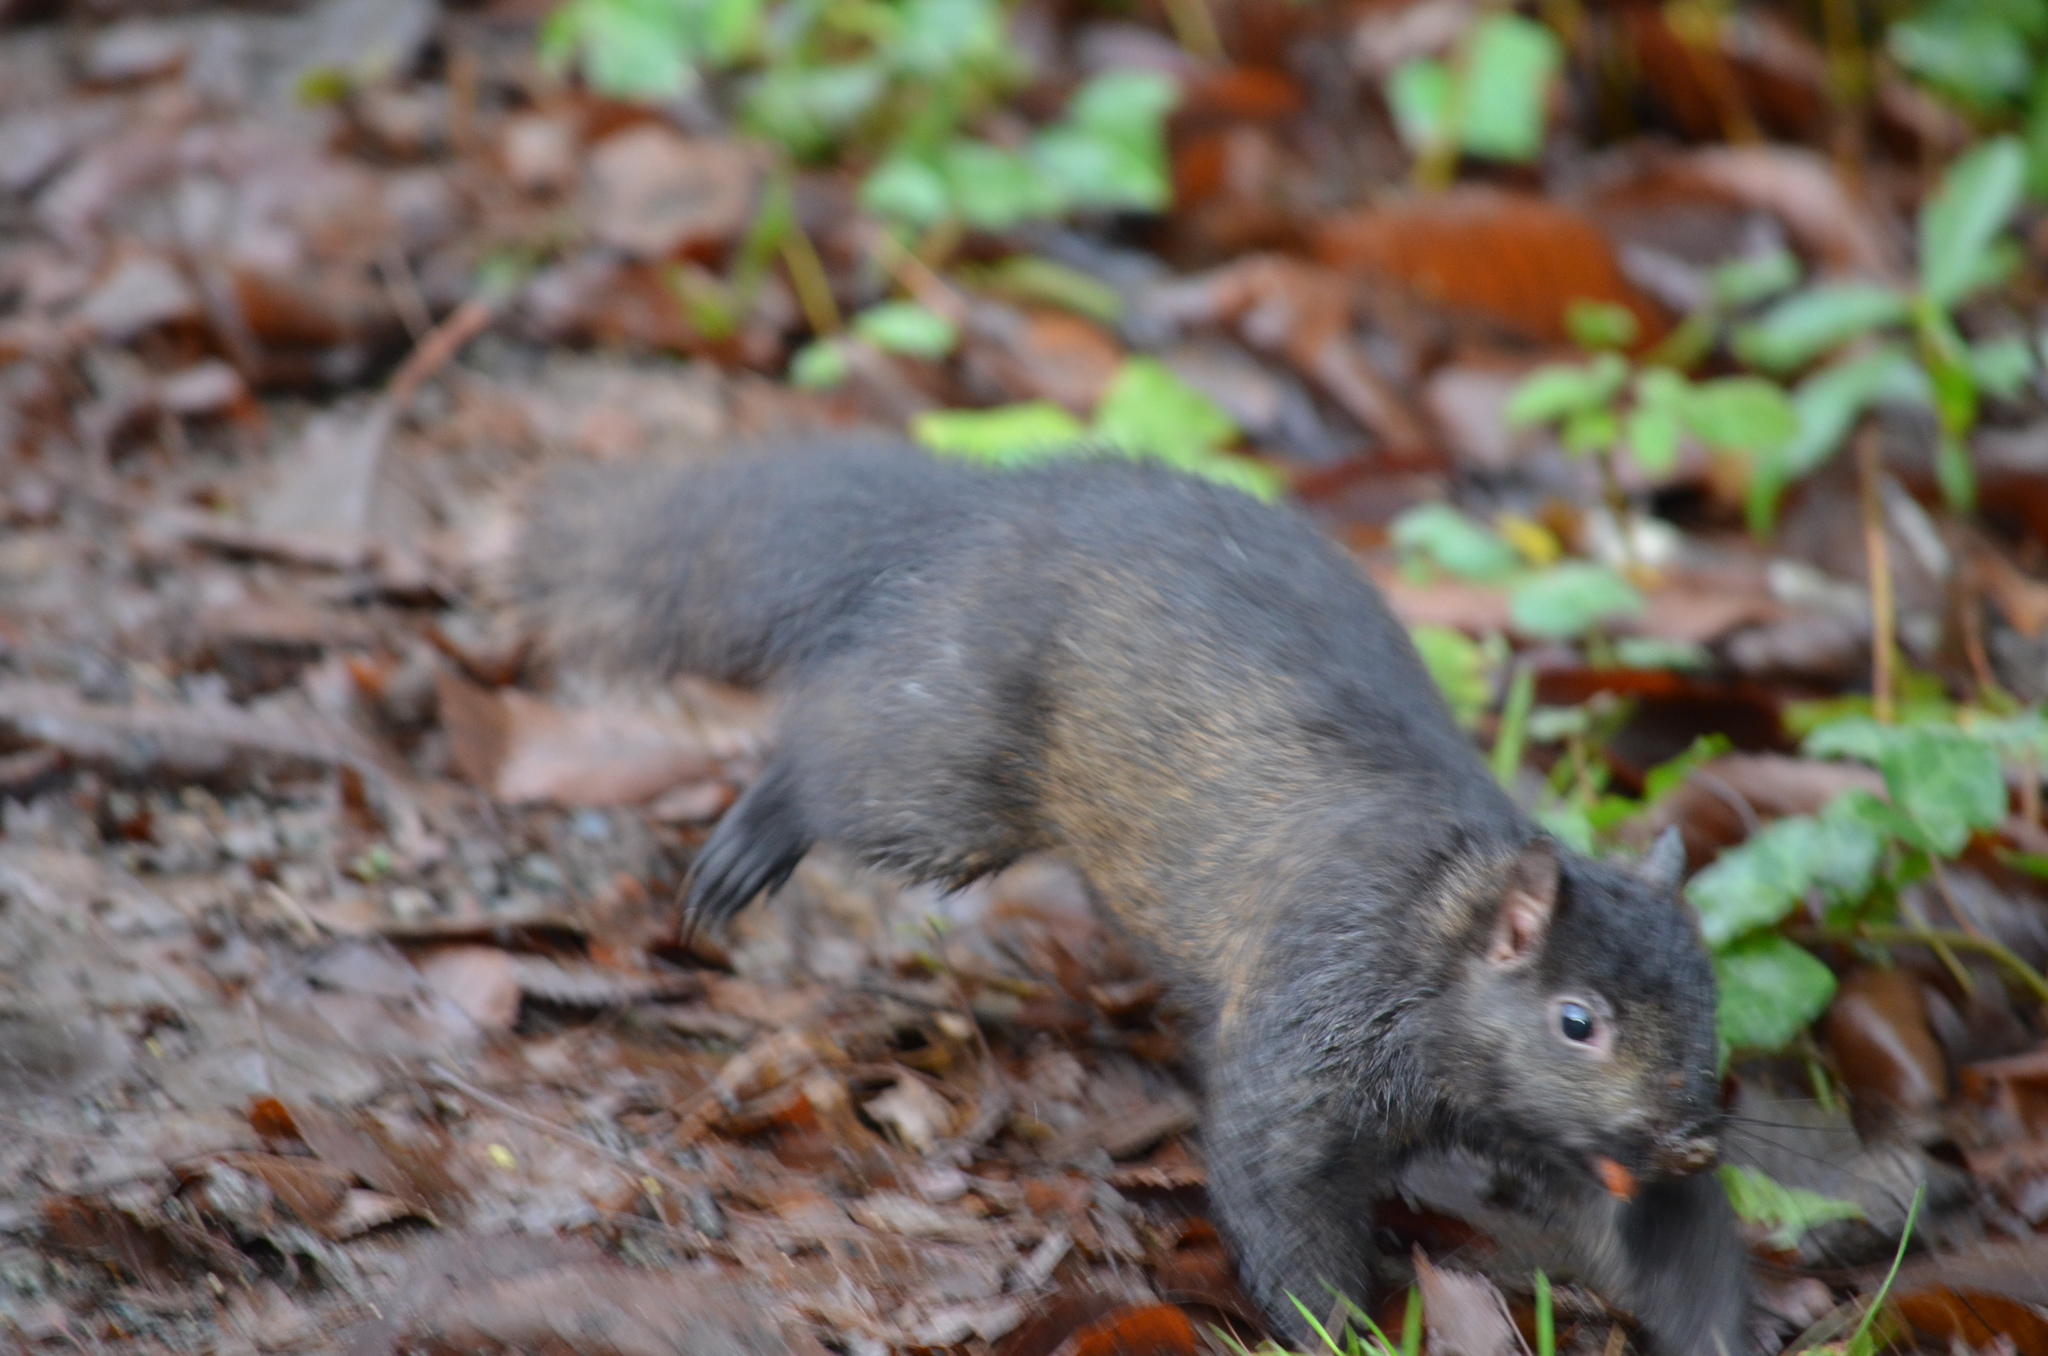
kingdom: Animalia
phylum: Chordata
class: Mammalia
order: Rodentia
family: Sciuridae
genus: Sciurus
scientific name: Sciurus carolinensis
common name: Eastern gray squirrel
